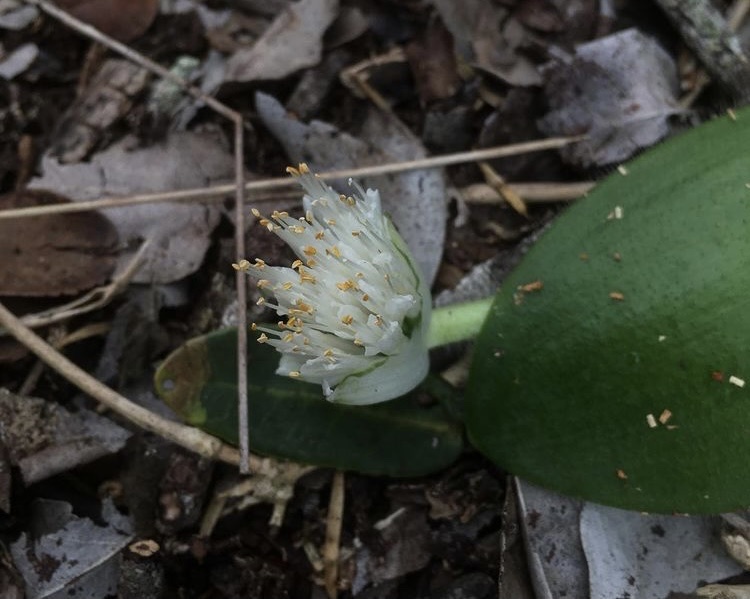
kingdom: Plantae
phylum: Tracheophyta
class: Liliopsida
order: Asparagales
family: Amaryllidaceae
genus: Haemanthus
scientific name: Haemanthus albiflos
